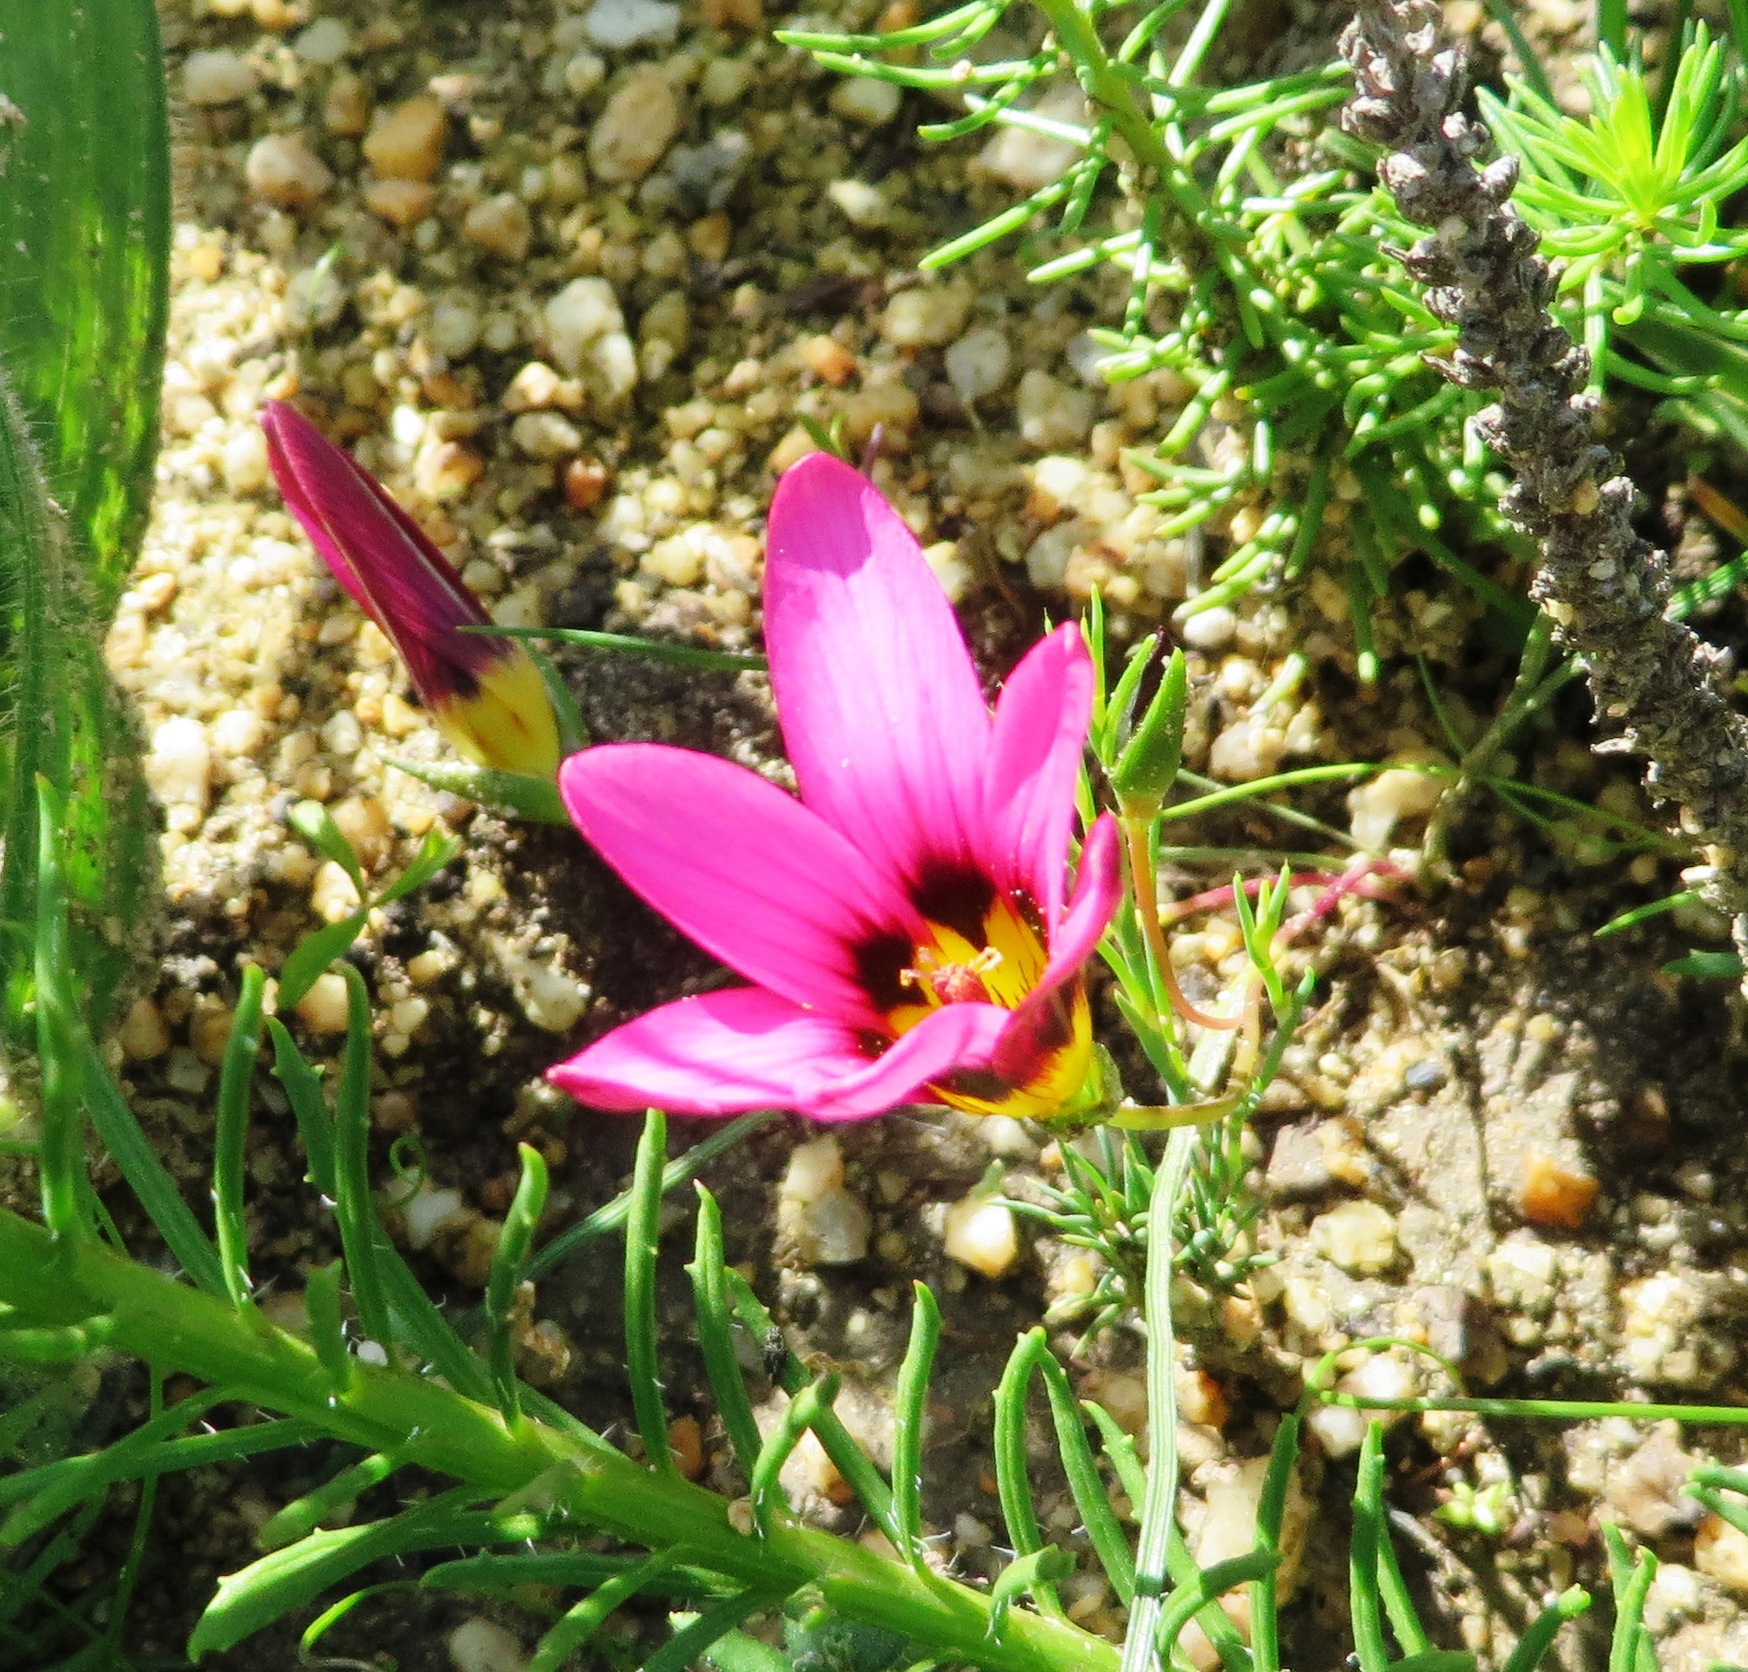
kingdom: Plantae
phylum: Tracheophyta
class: Liliopsida
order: Asparagales
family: Iridaceae
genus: Romulea
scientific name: Romulea rosea
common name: Oniongrass
